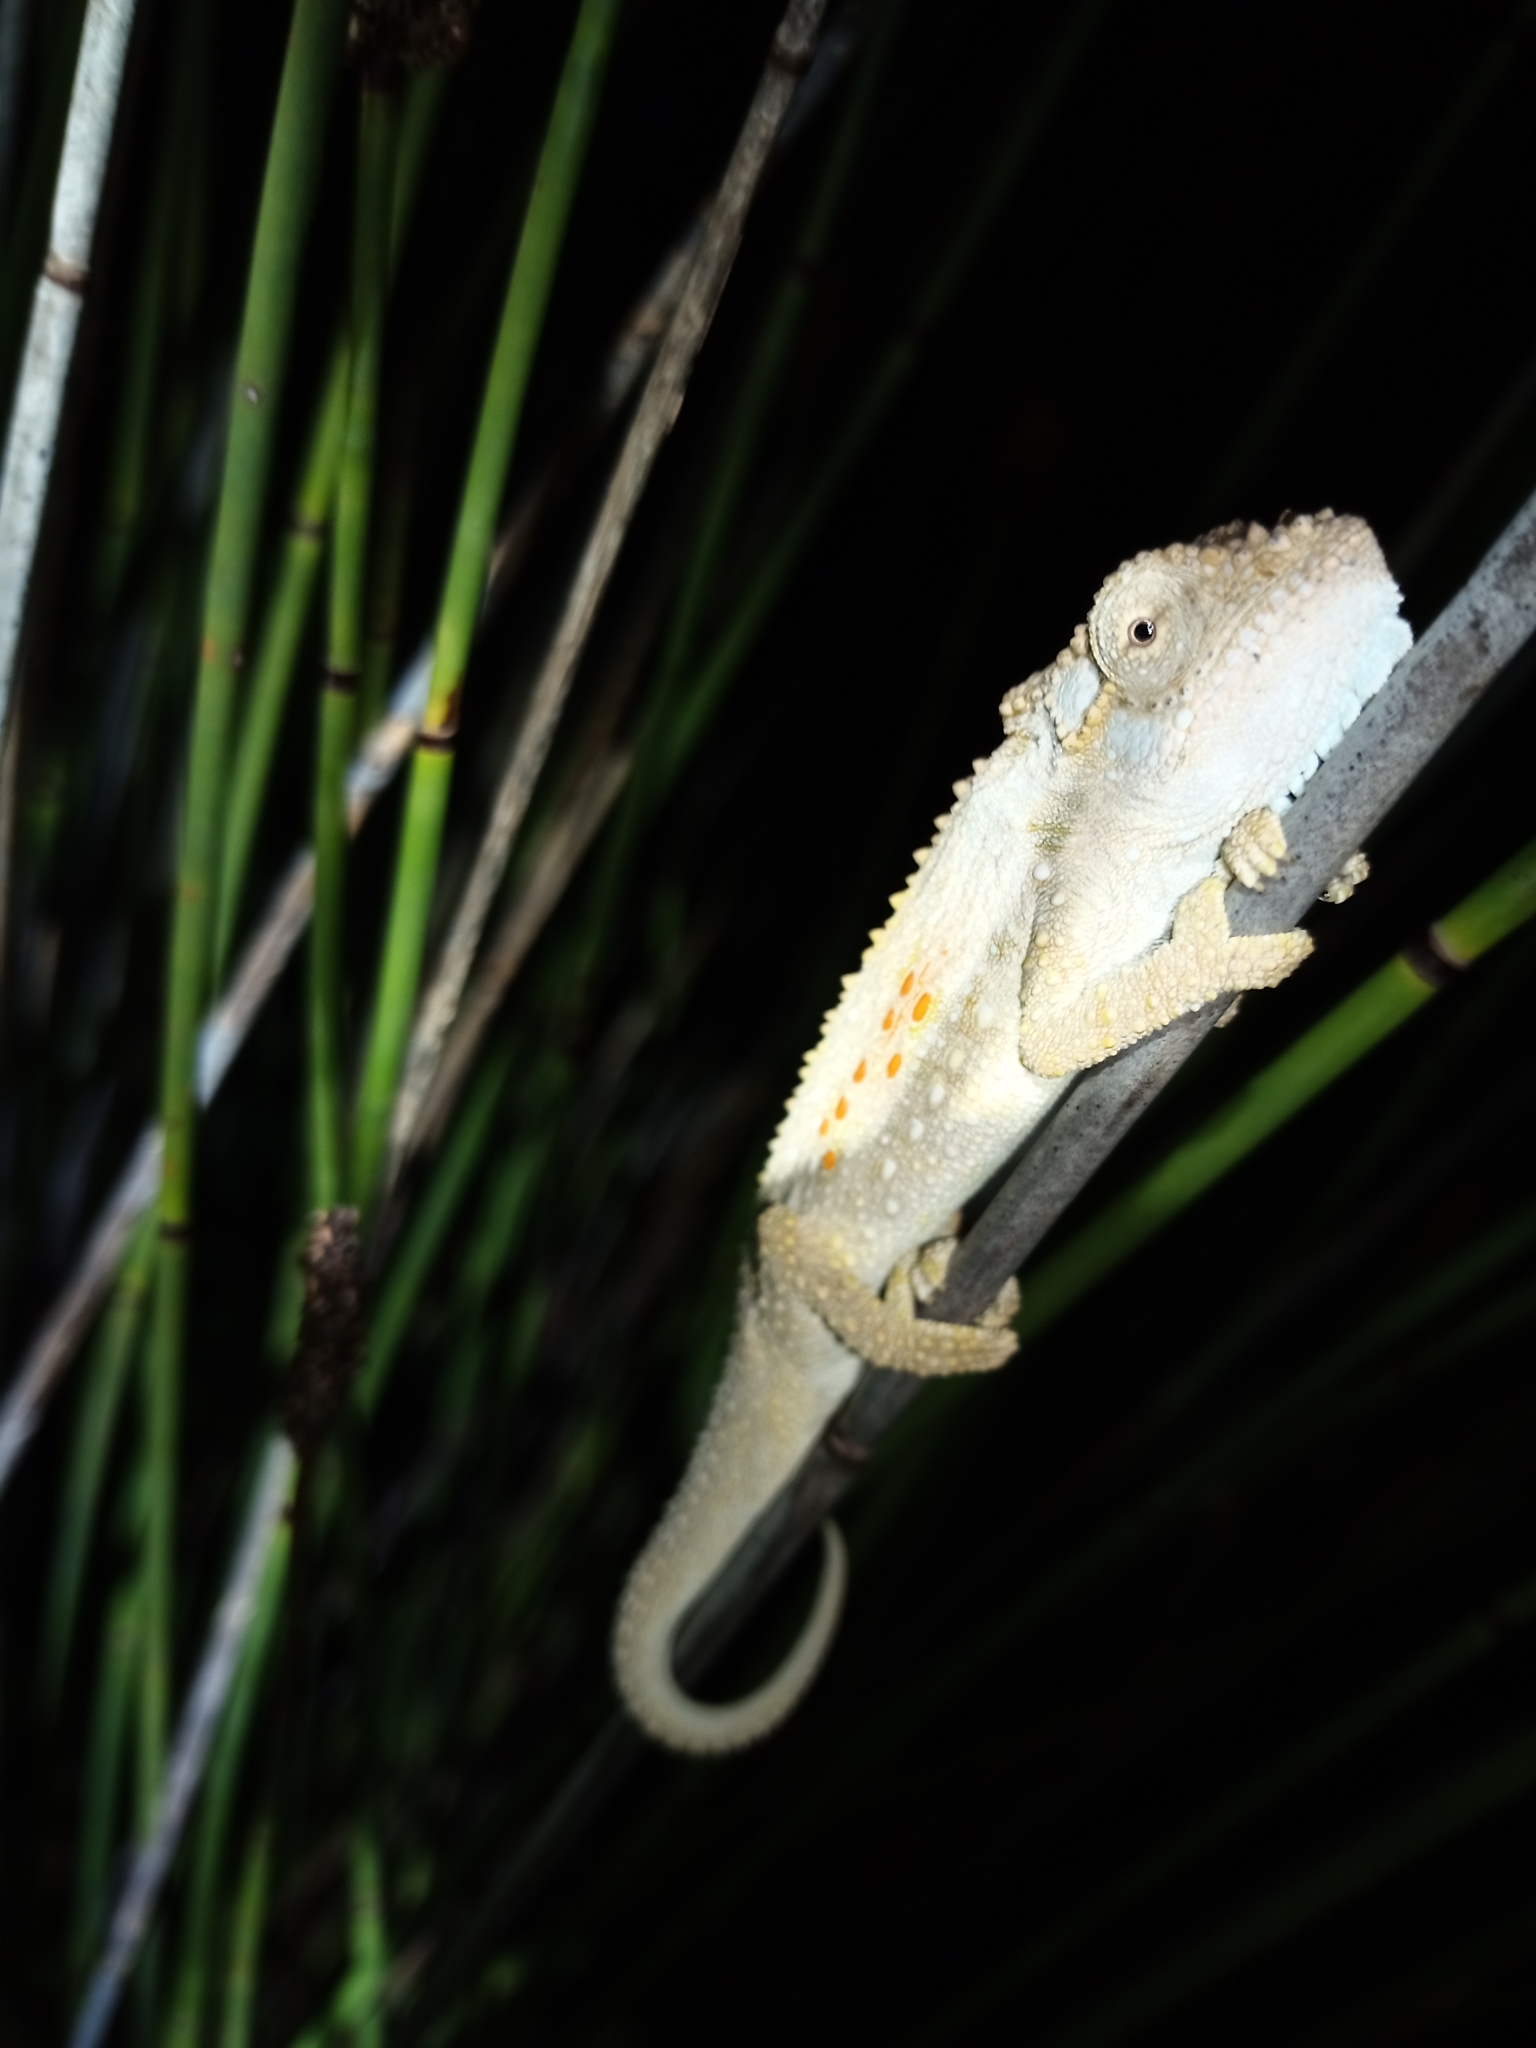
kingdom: Animalia
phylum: Chordata
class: Squamata
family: Chamaeleonidae
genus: Bradypodion
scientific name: Bradypodion ventrale
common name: Eastern cape dwarf chameleon
